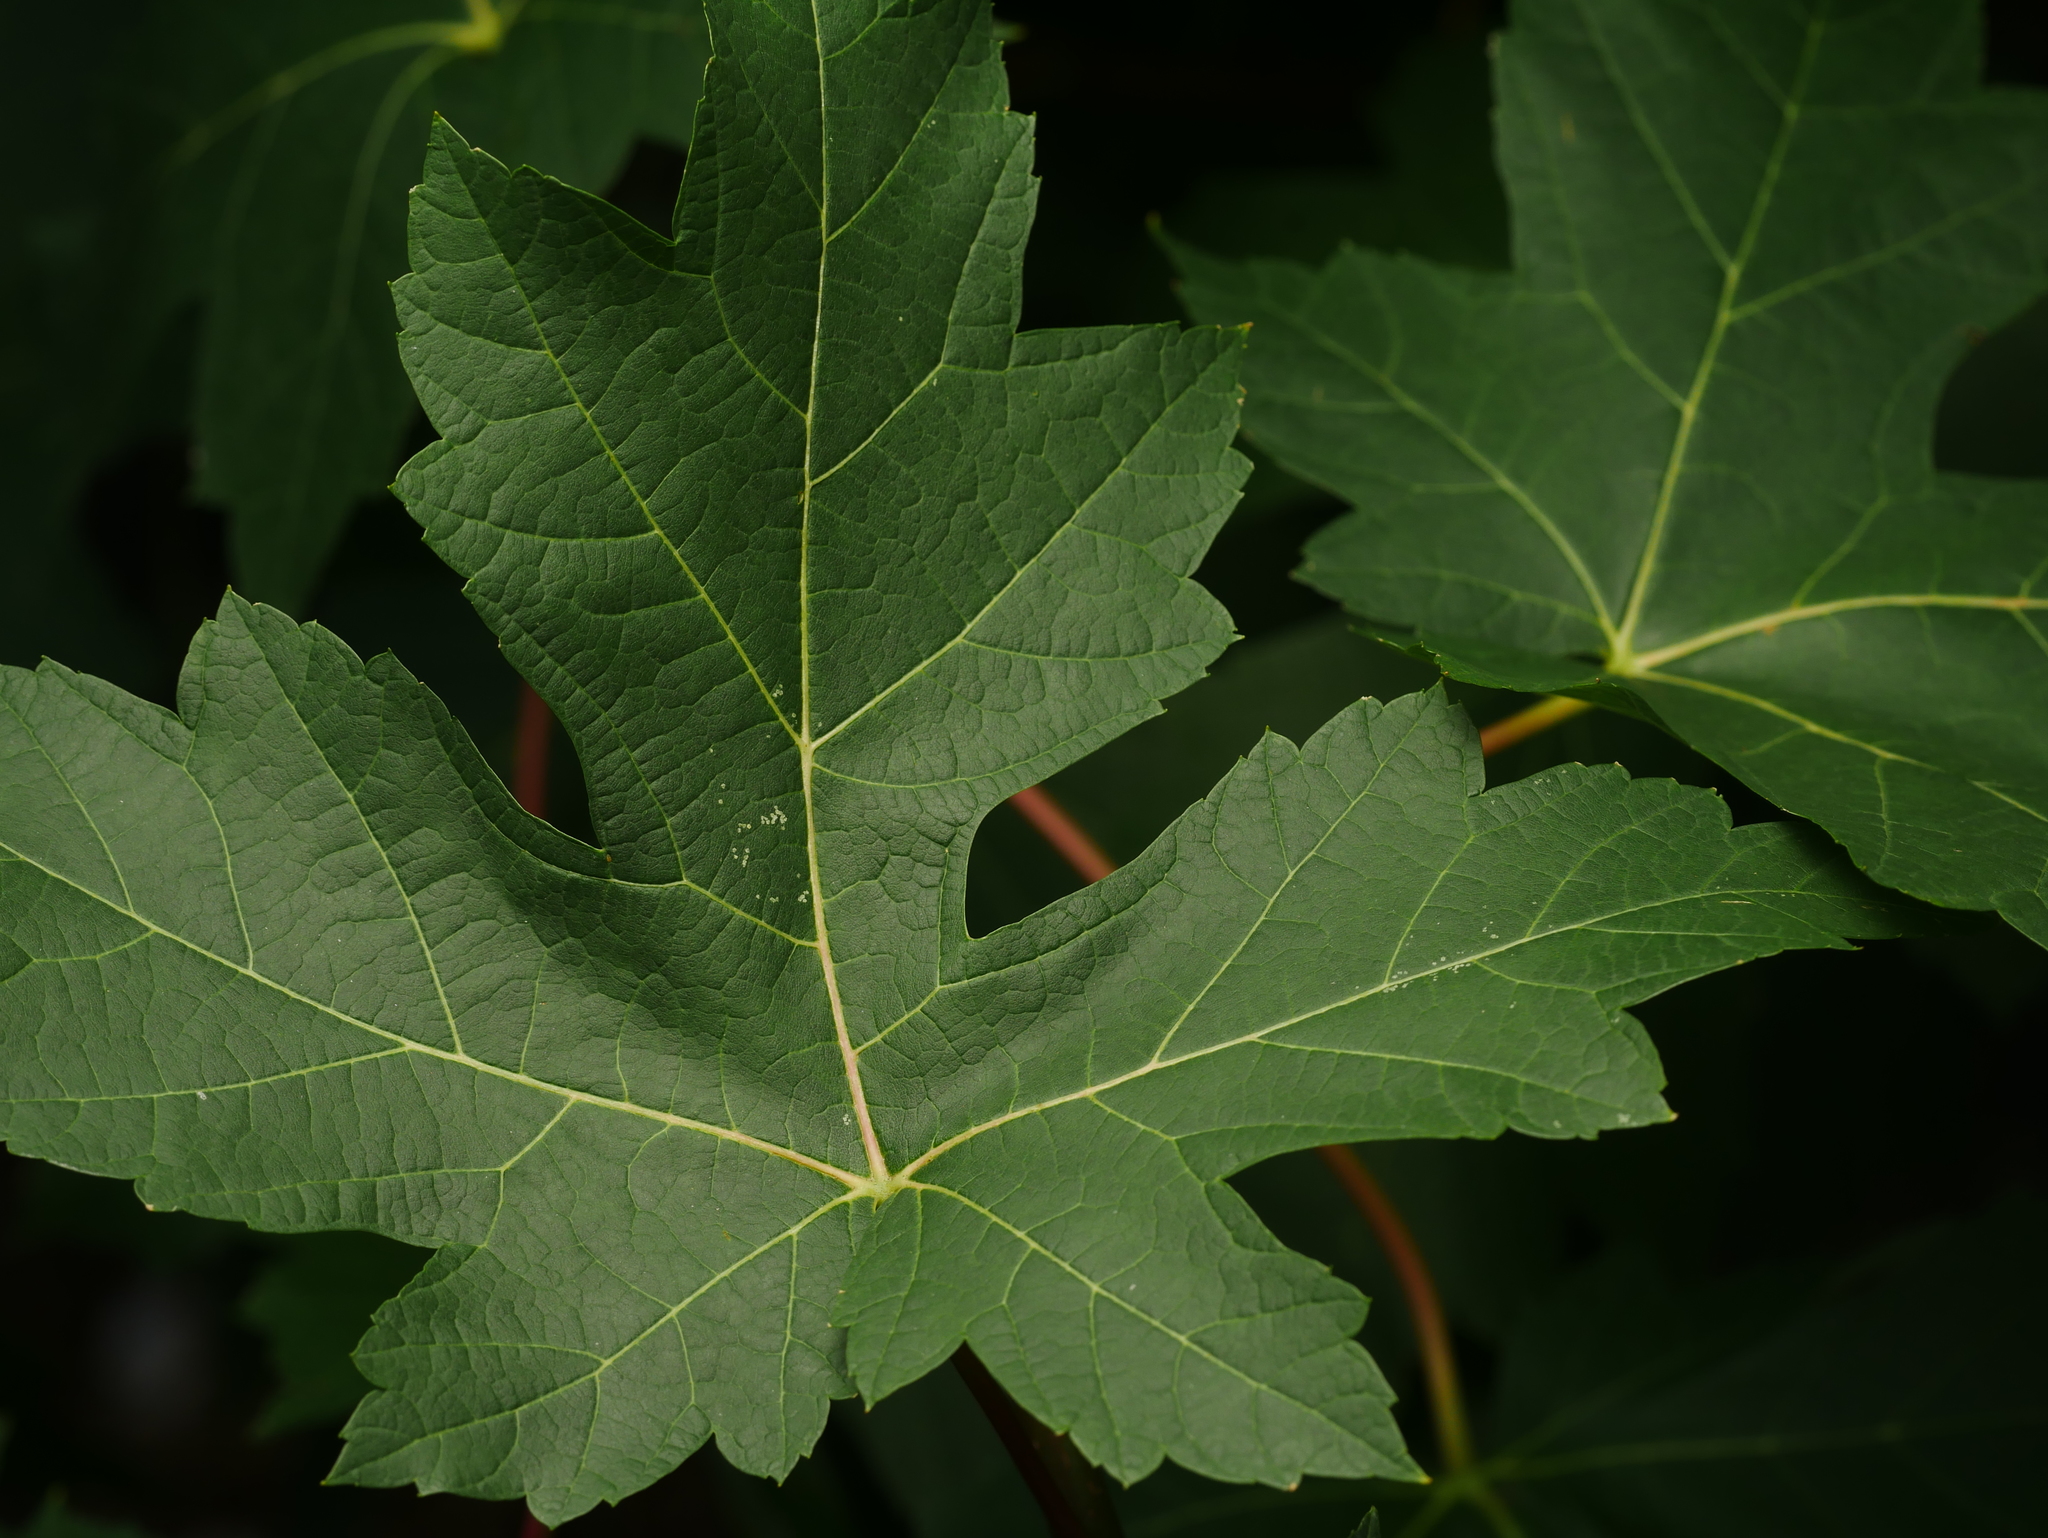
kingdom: Plantae
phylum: Tracheophyta
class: Magnoliopsida
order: Sapindales
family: Sapindaceae
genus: Acer
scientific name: Acer saccharinum
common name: Silver maple
